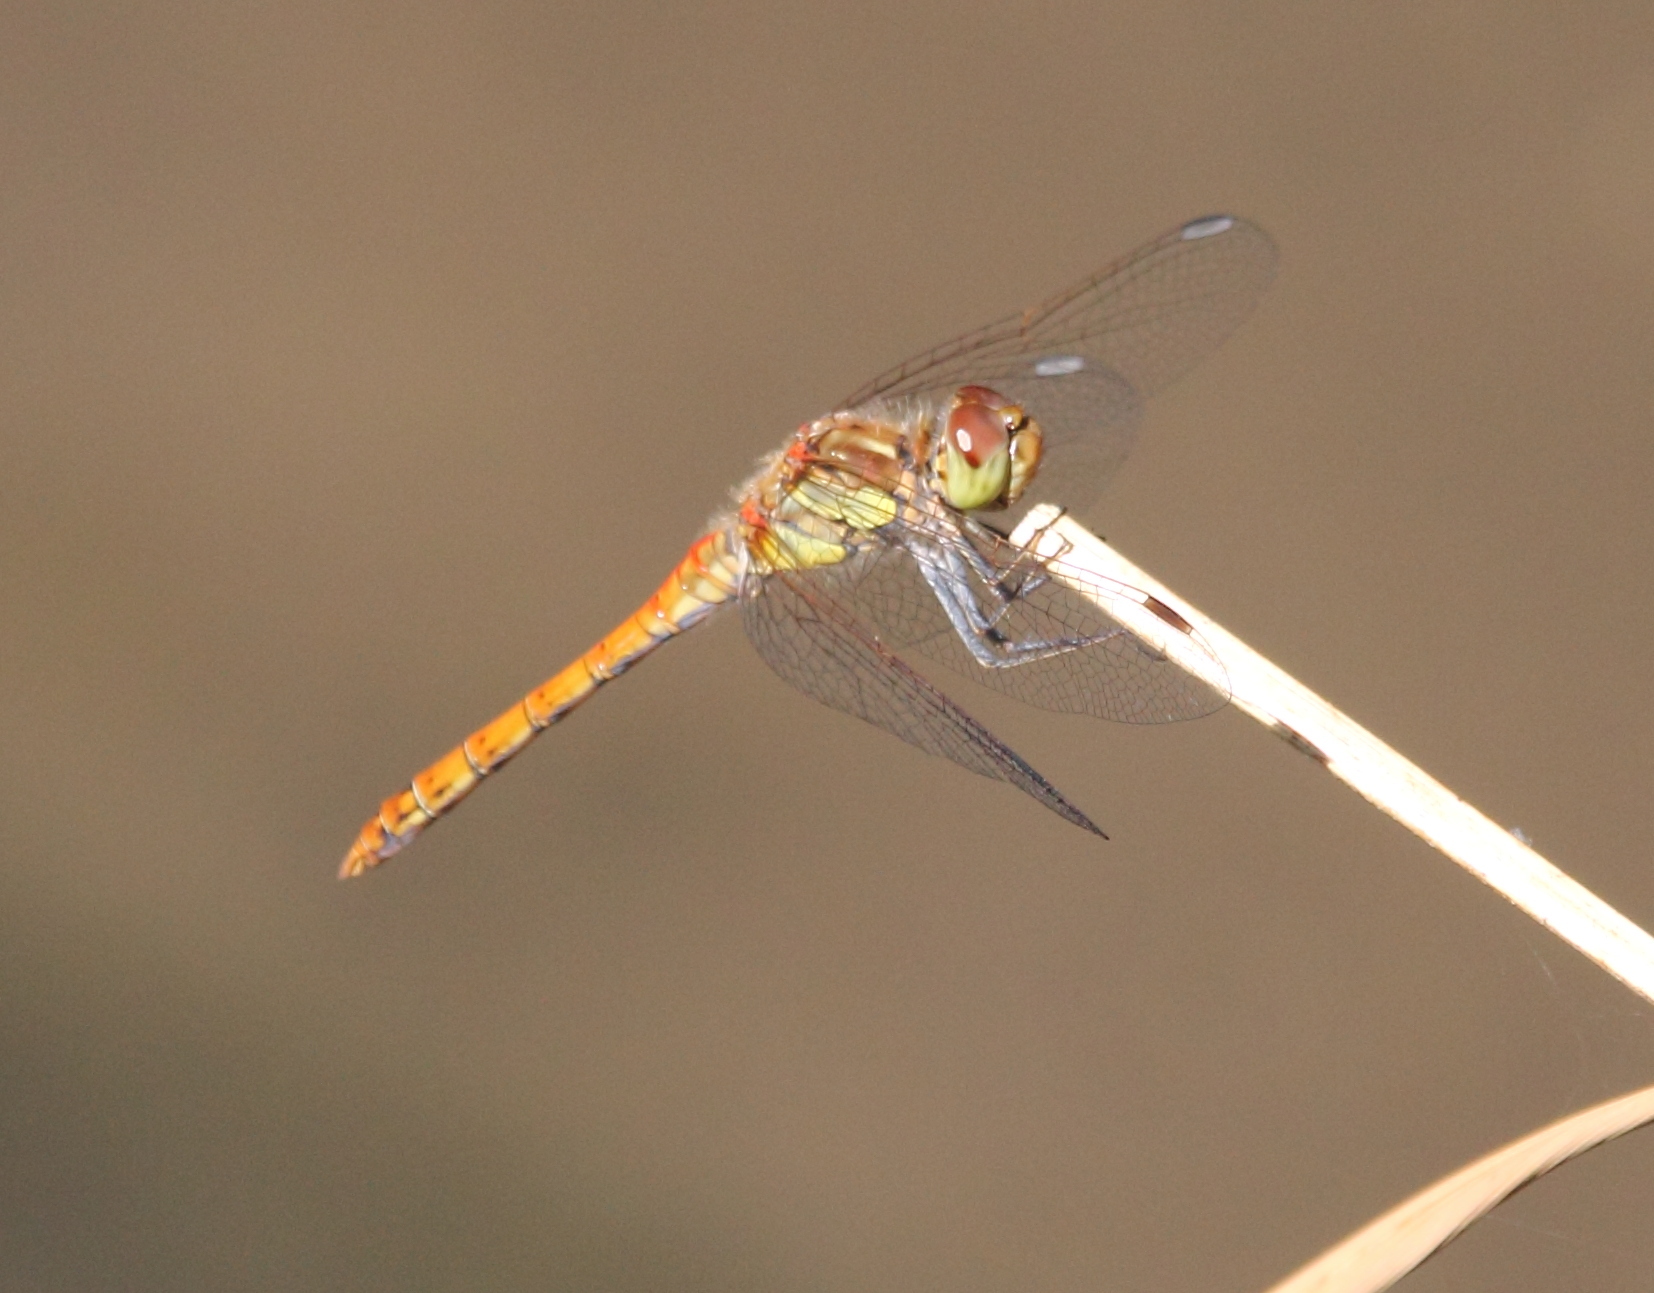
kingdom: Animalia
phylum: Arthropoda
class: Insecta
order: Odonata
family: Libellulidae
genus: Sympetrum
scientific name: Sympetrum striolatum
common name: Common darter
